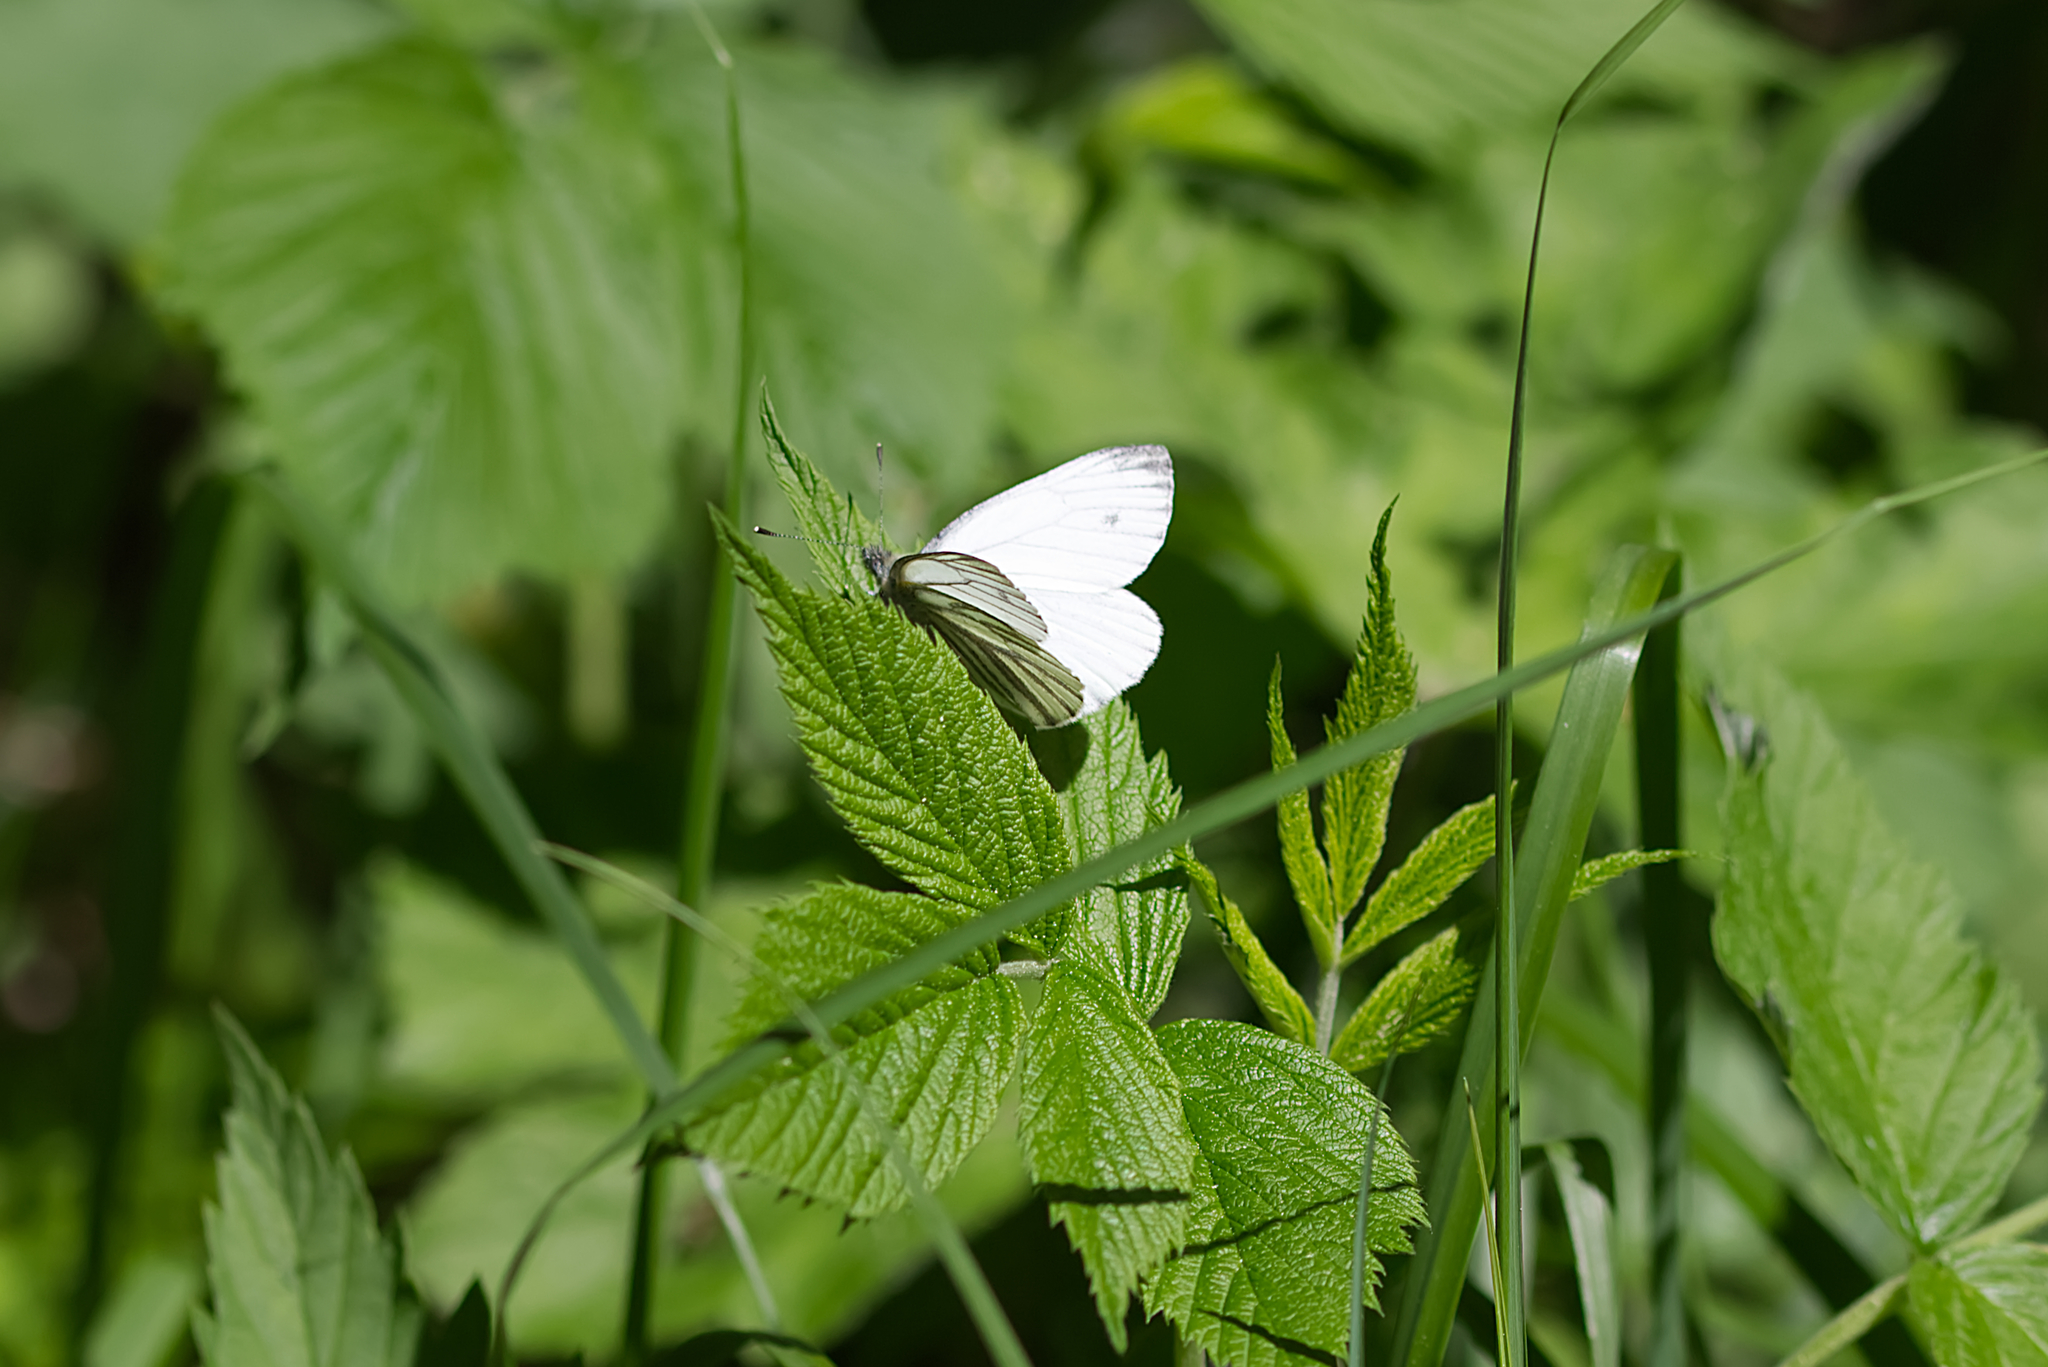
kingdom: Animalia
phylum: Arthropoda
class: Insecta
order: Lepidoptera
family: Pieridae
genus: Pieris
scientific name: Pieris napi
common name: Green-veined white
